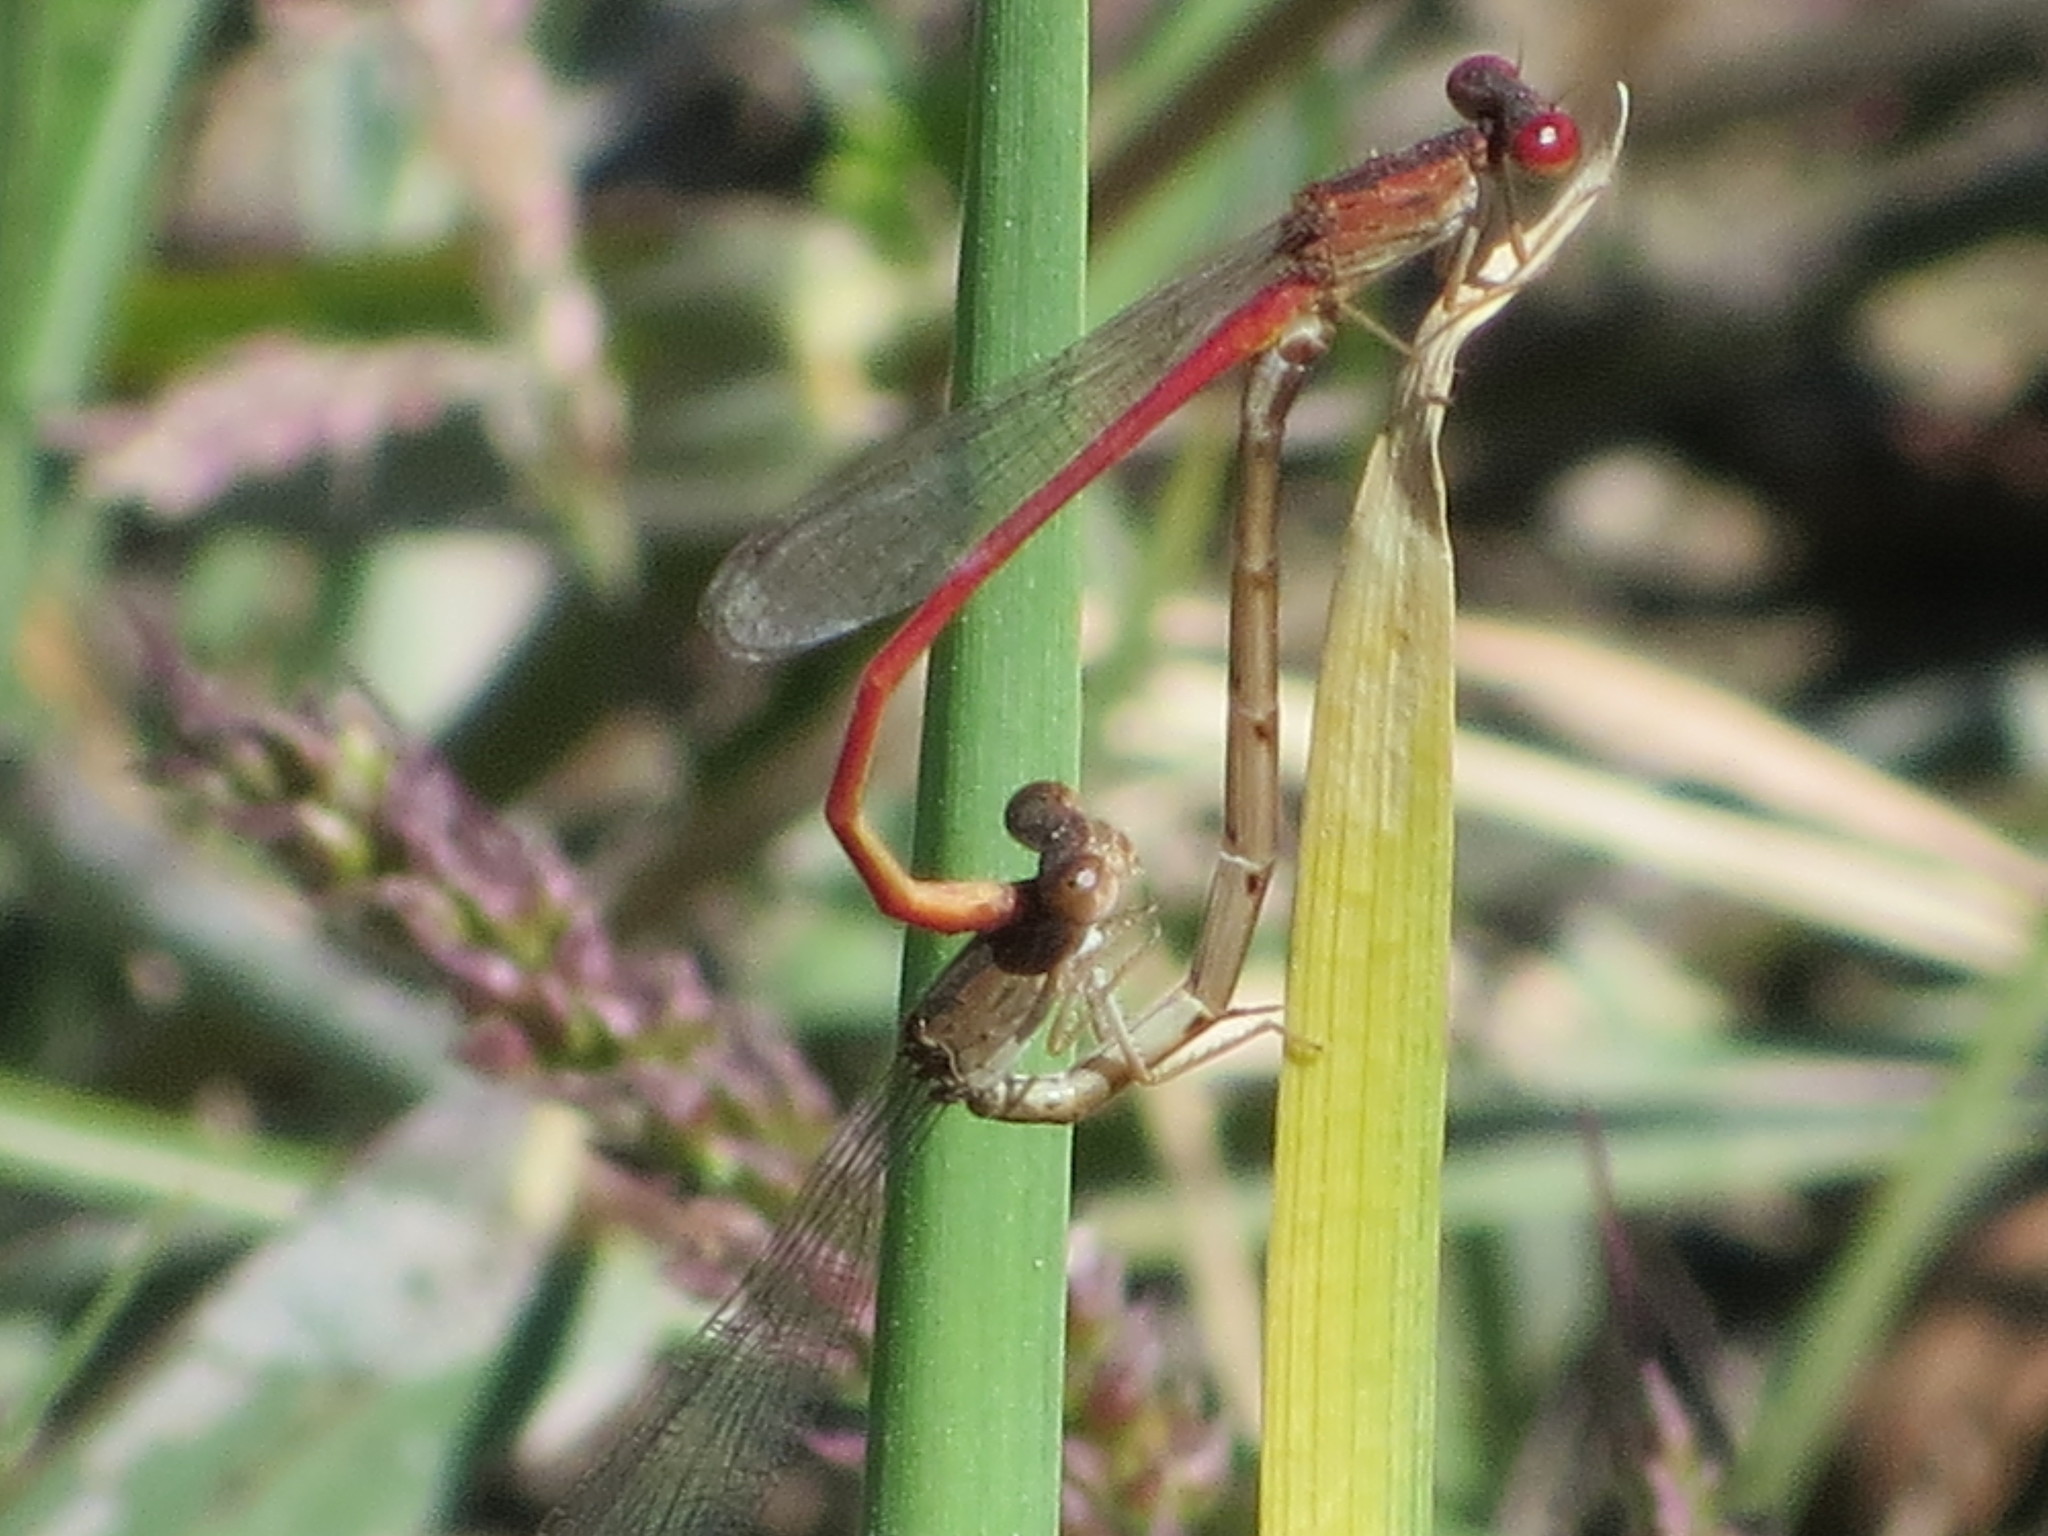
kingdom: Animalia
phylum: Arthropoda
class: Insecta
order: Odonata
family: Coenagrionidae
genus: Telebasis
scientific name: Telebasis salva
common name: Desert firetail
